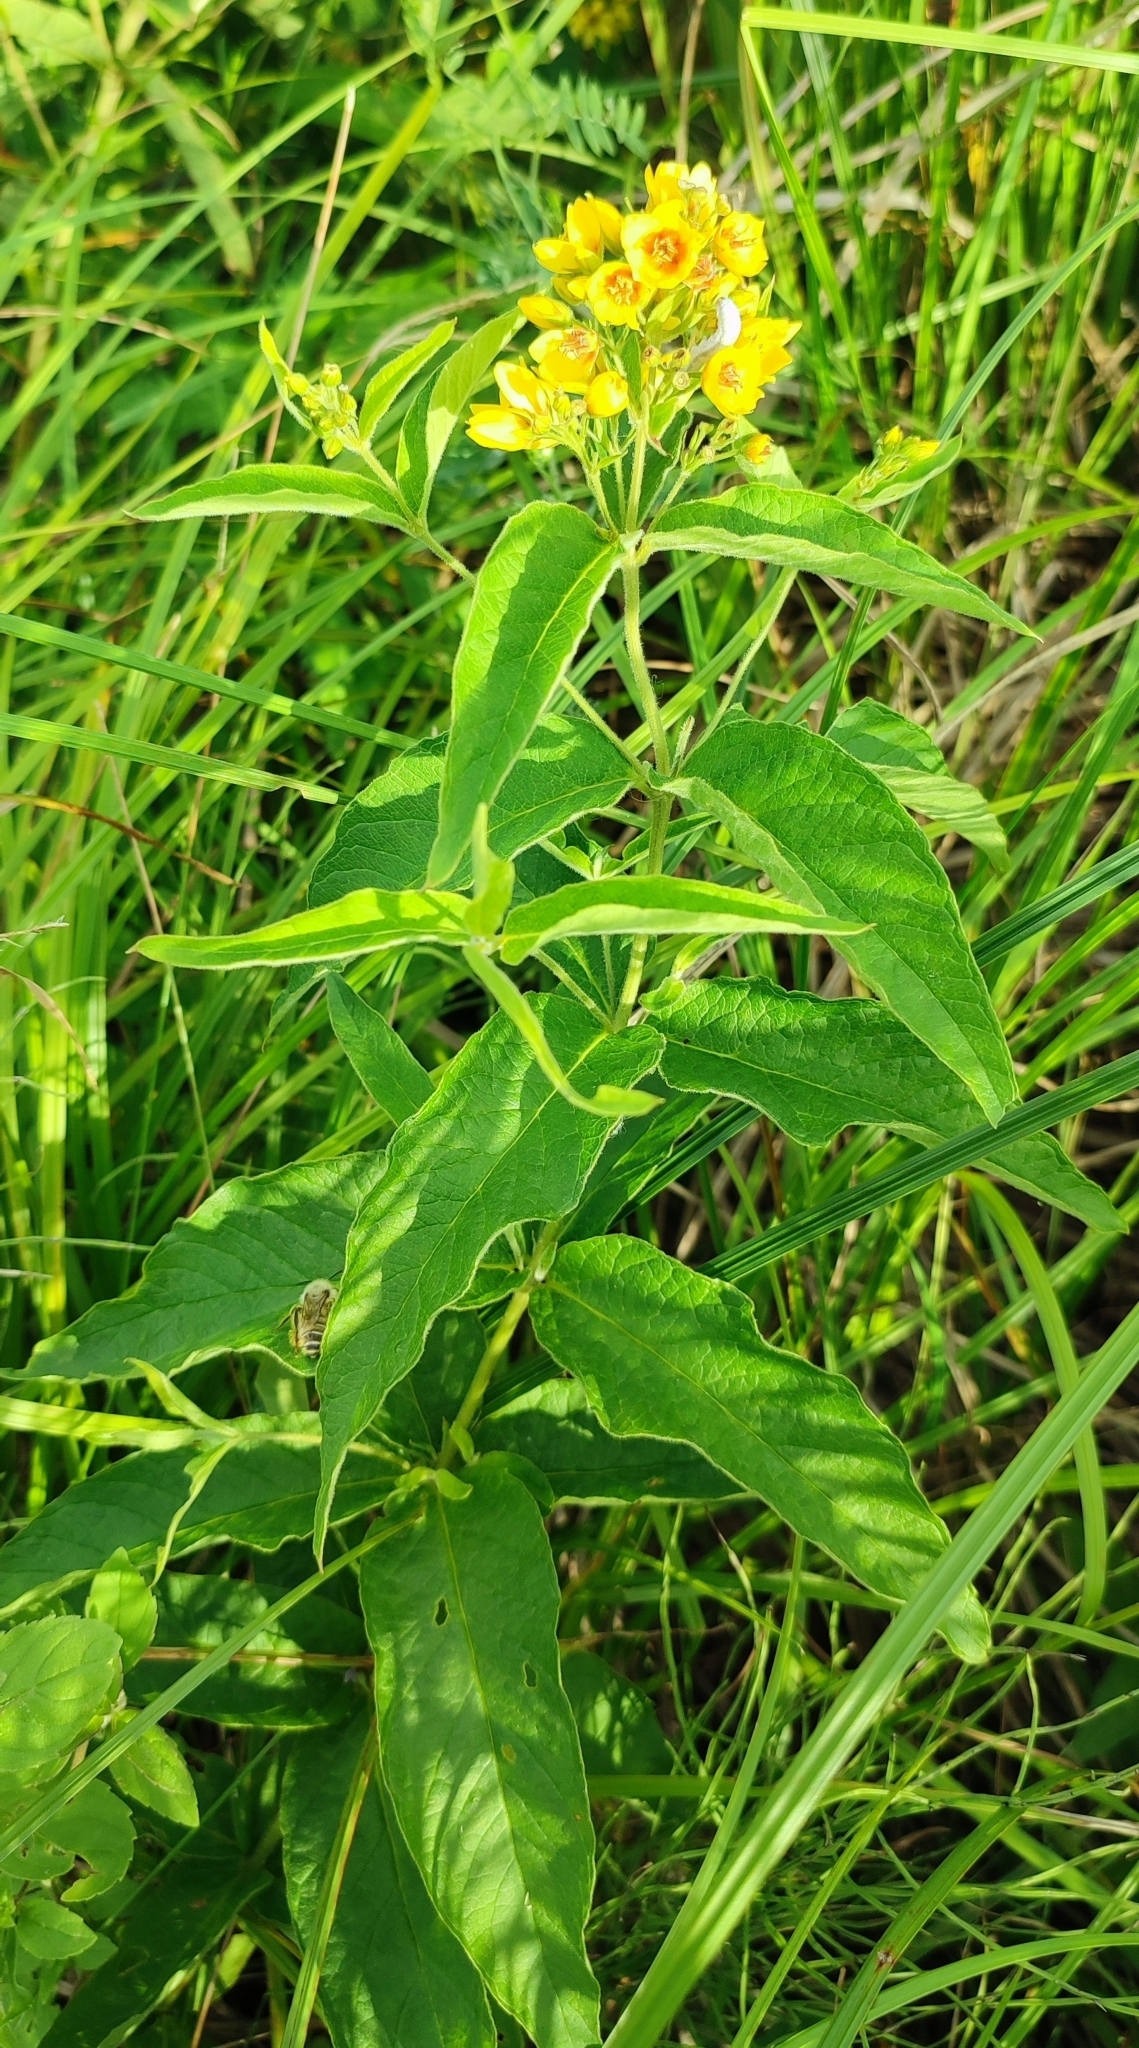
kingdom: Plantae
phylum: Tracheophyta
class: Magnoliopsida
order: Ericales
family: Primulaceae
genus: Lysimachia
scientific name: Lysimachia vulgaris
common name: Yellow loosestrife
